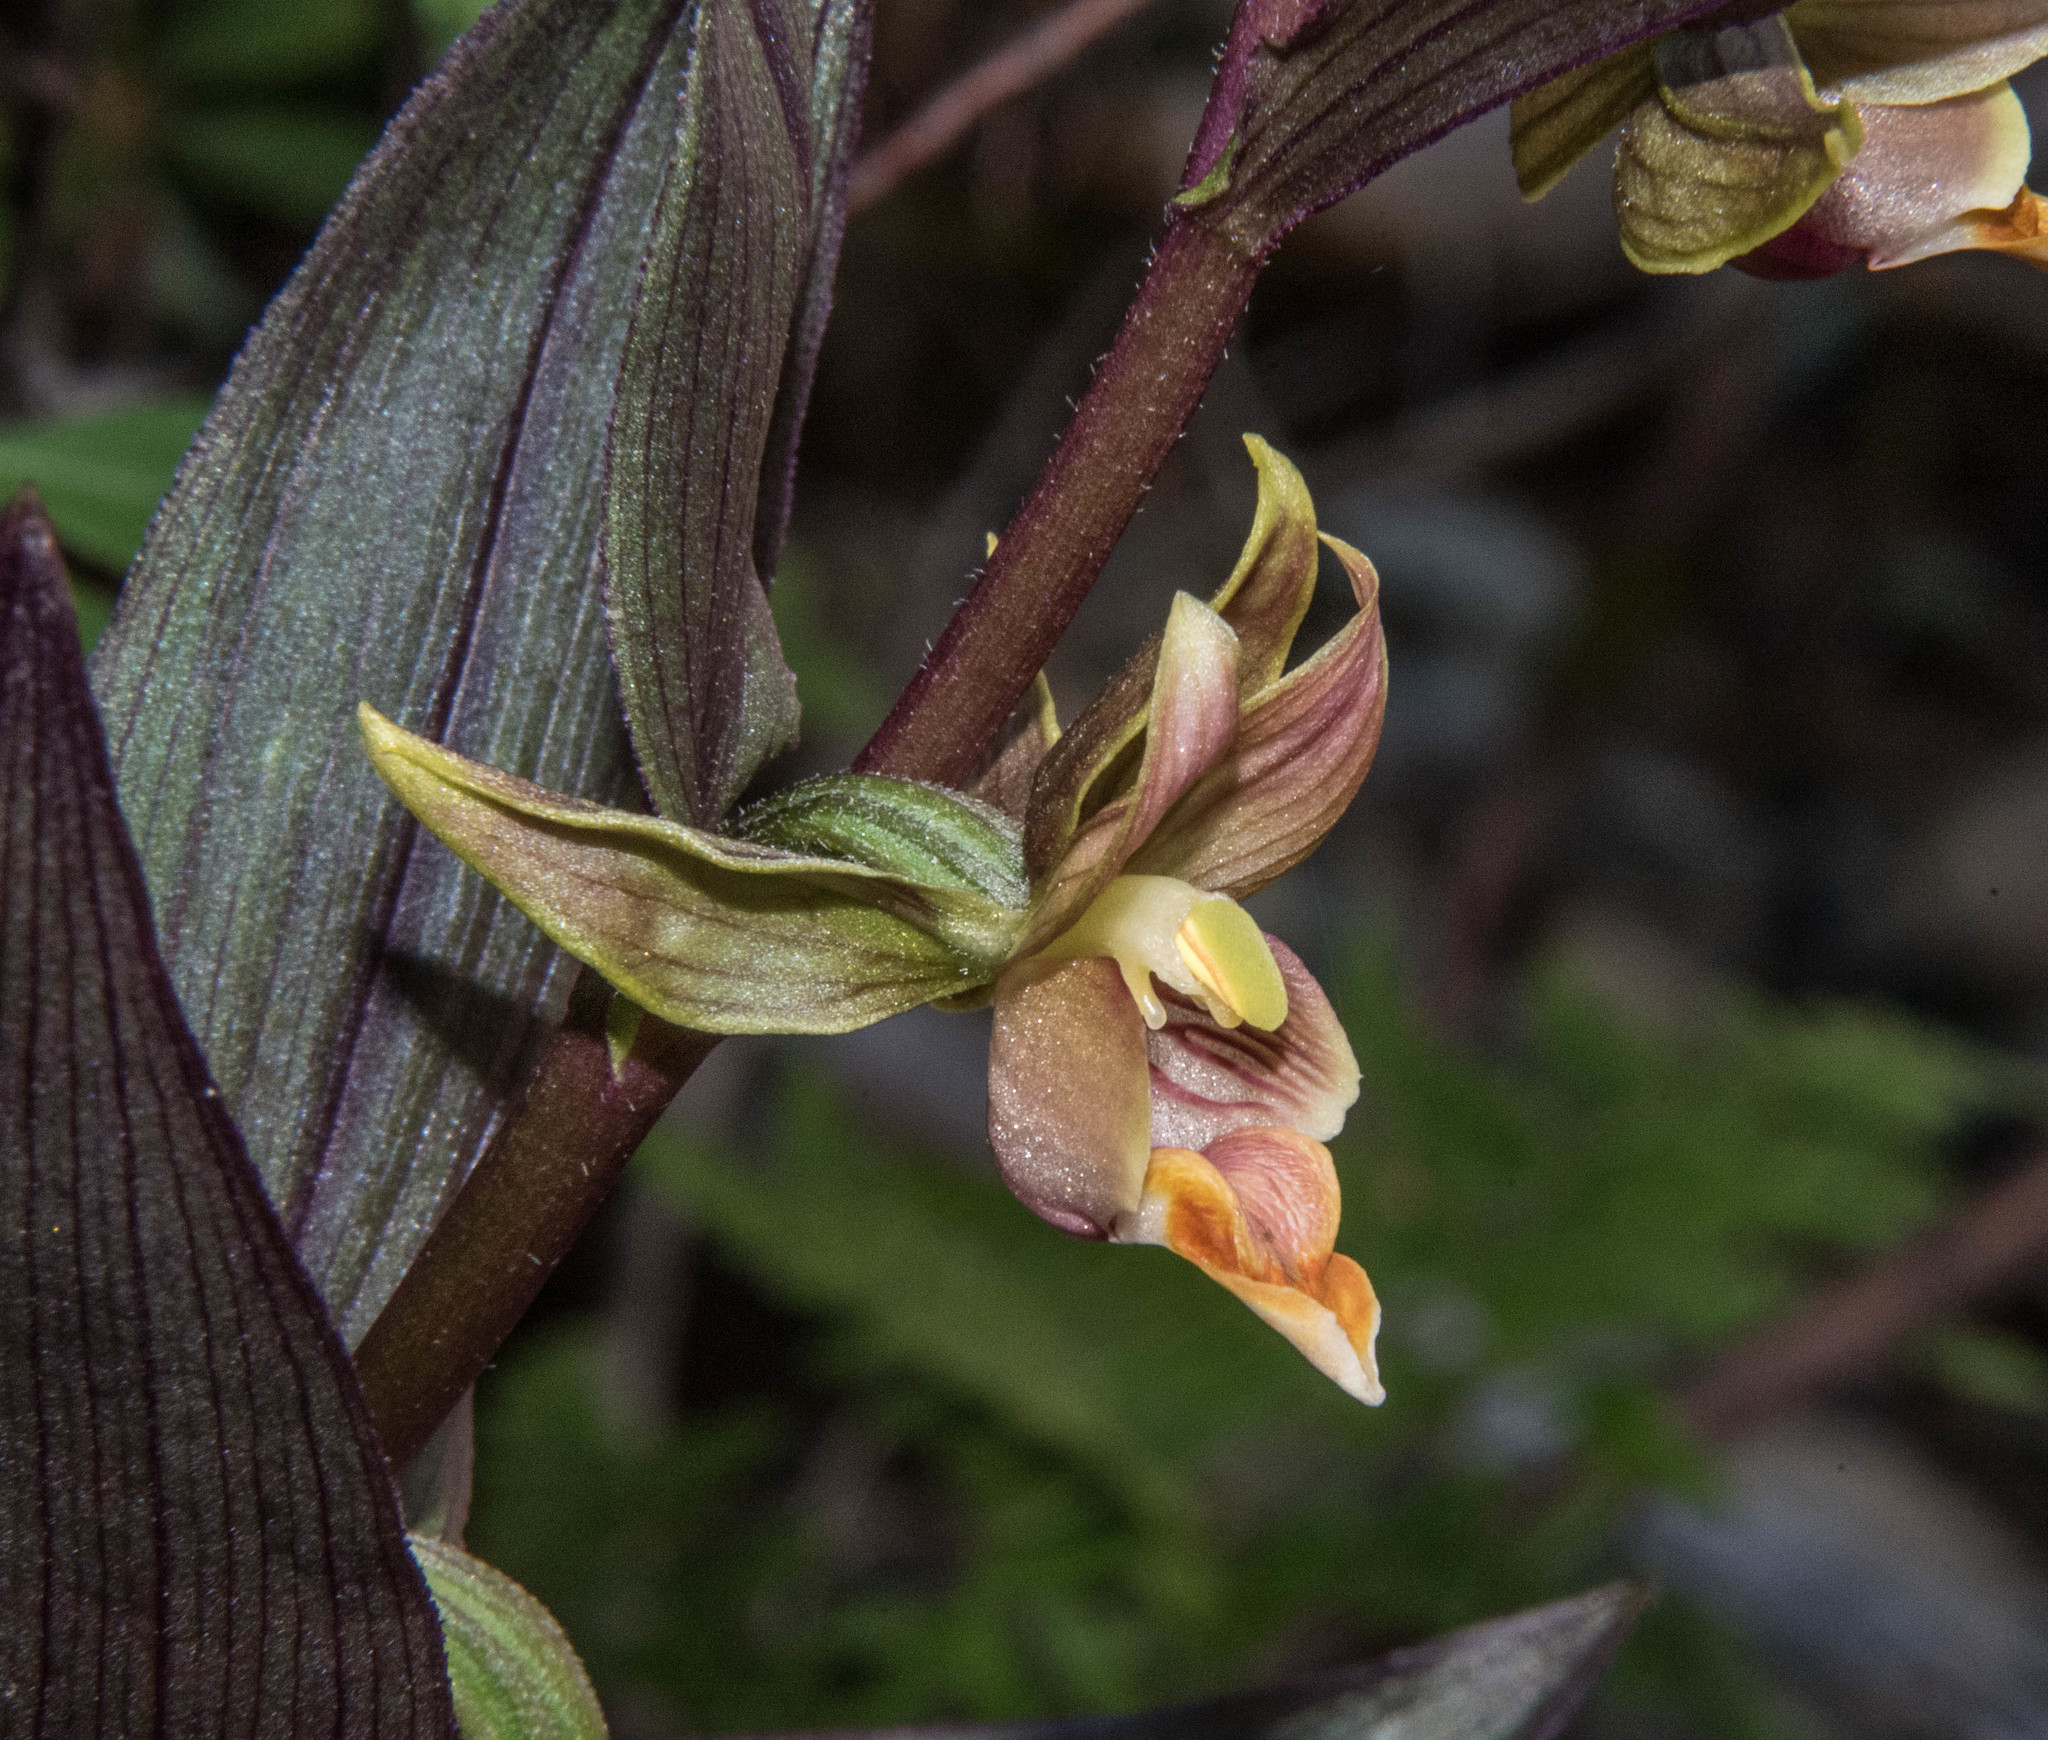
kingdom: Plantae
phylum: Tracheophyta
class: Liliopsida
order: Asparagales
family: Orchidaceae
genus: Epipactis
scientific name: Epipactis gigantea
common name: Chatterbox
